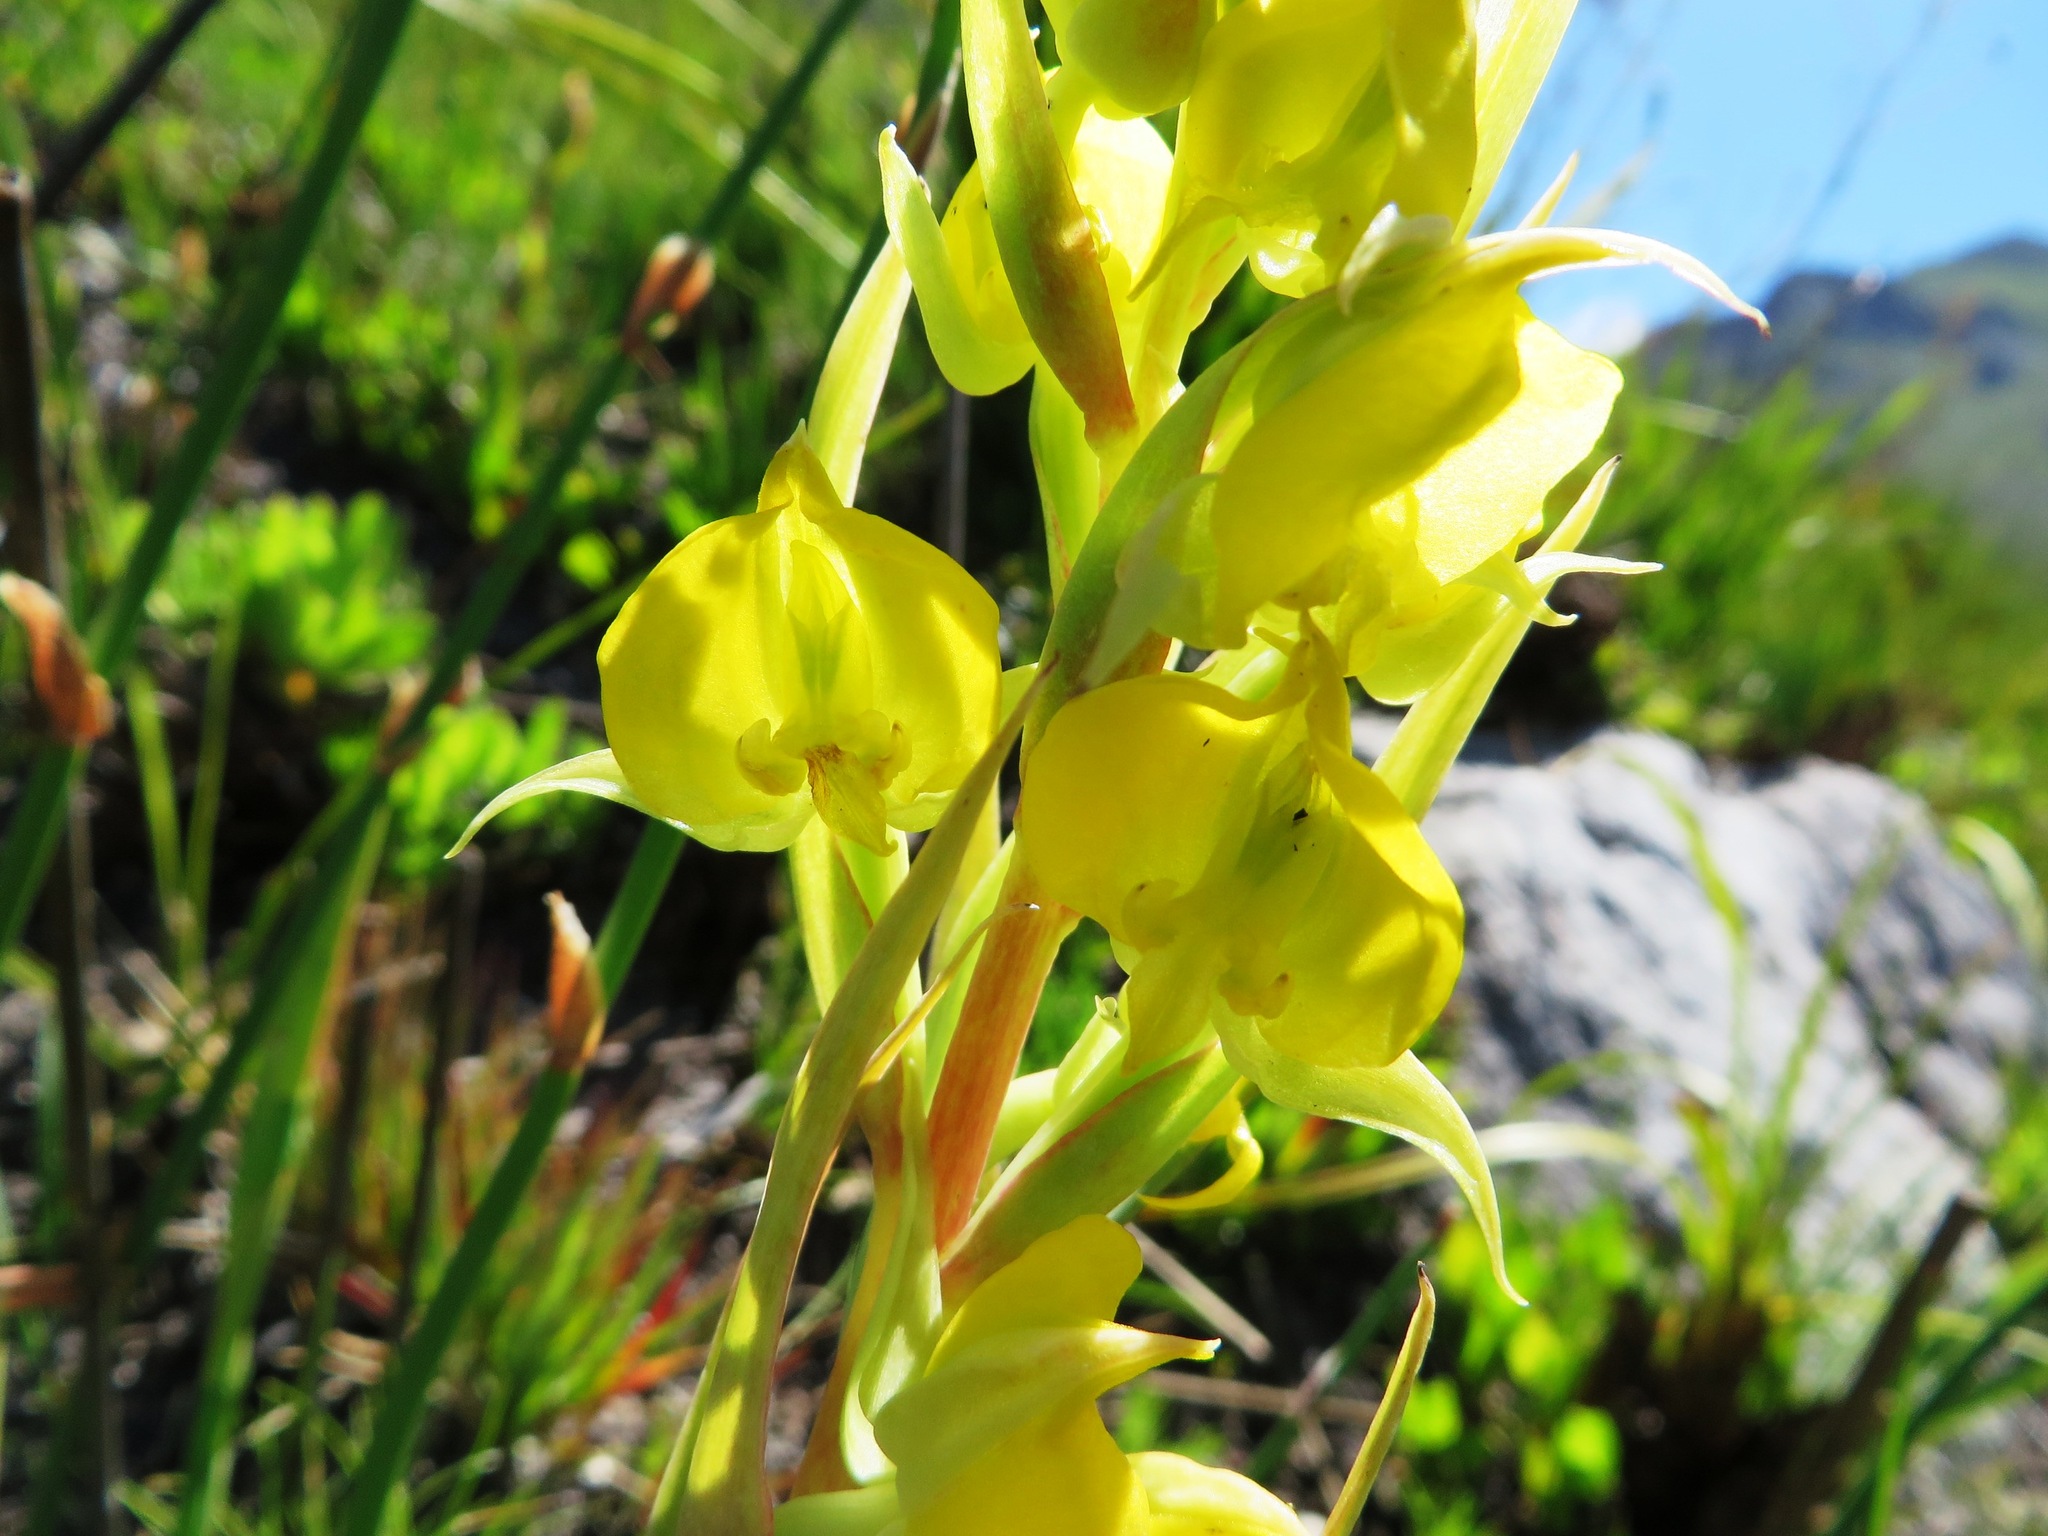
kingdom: Plantae
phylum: Tracheophyta
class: Liliopsida
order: Asparagales
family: Orchidaceae
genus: Pterygodium
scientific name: Pterygodium acutifolium
